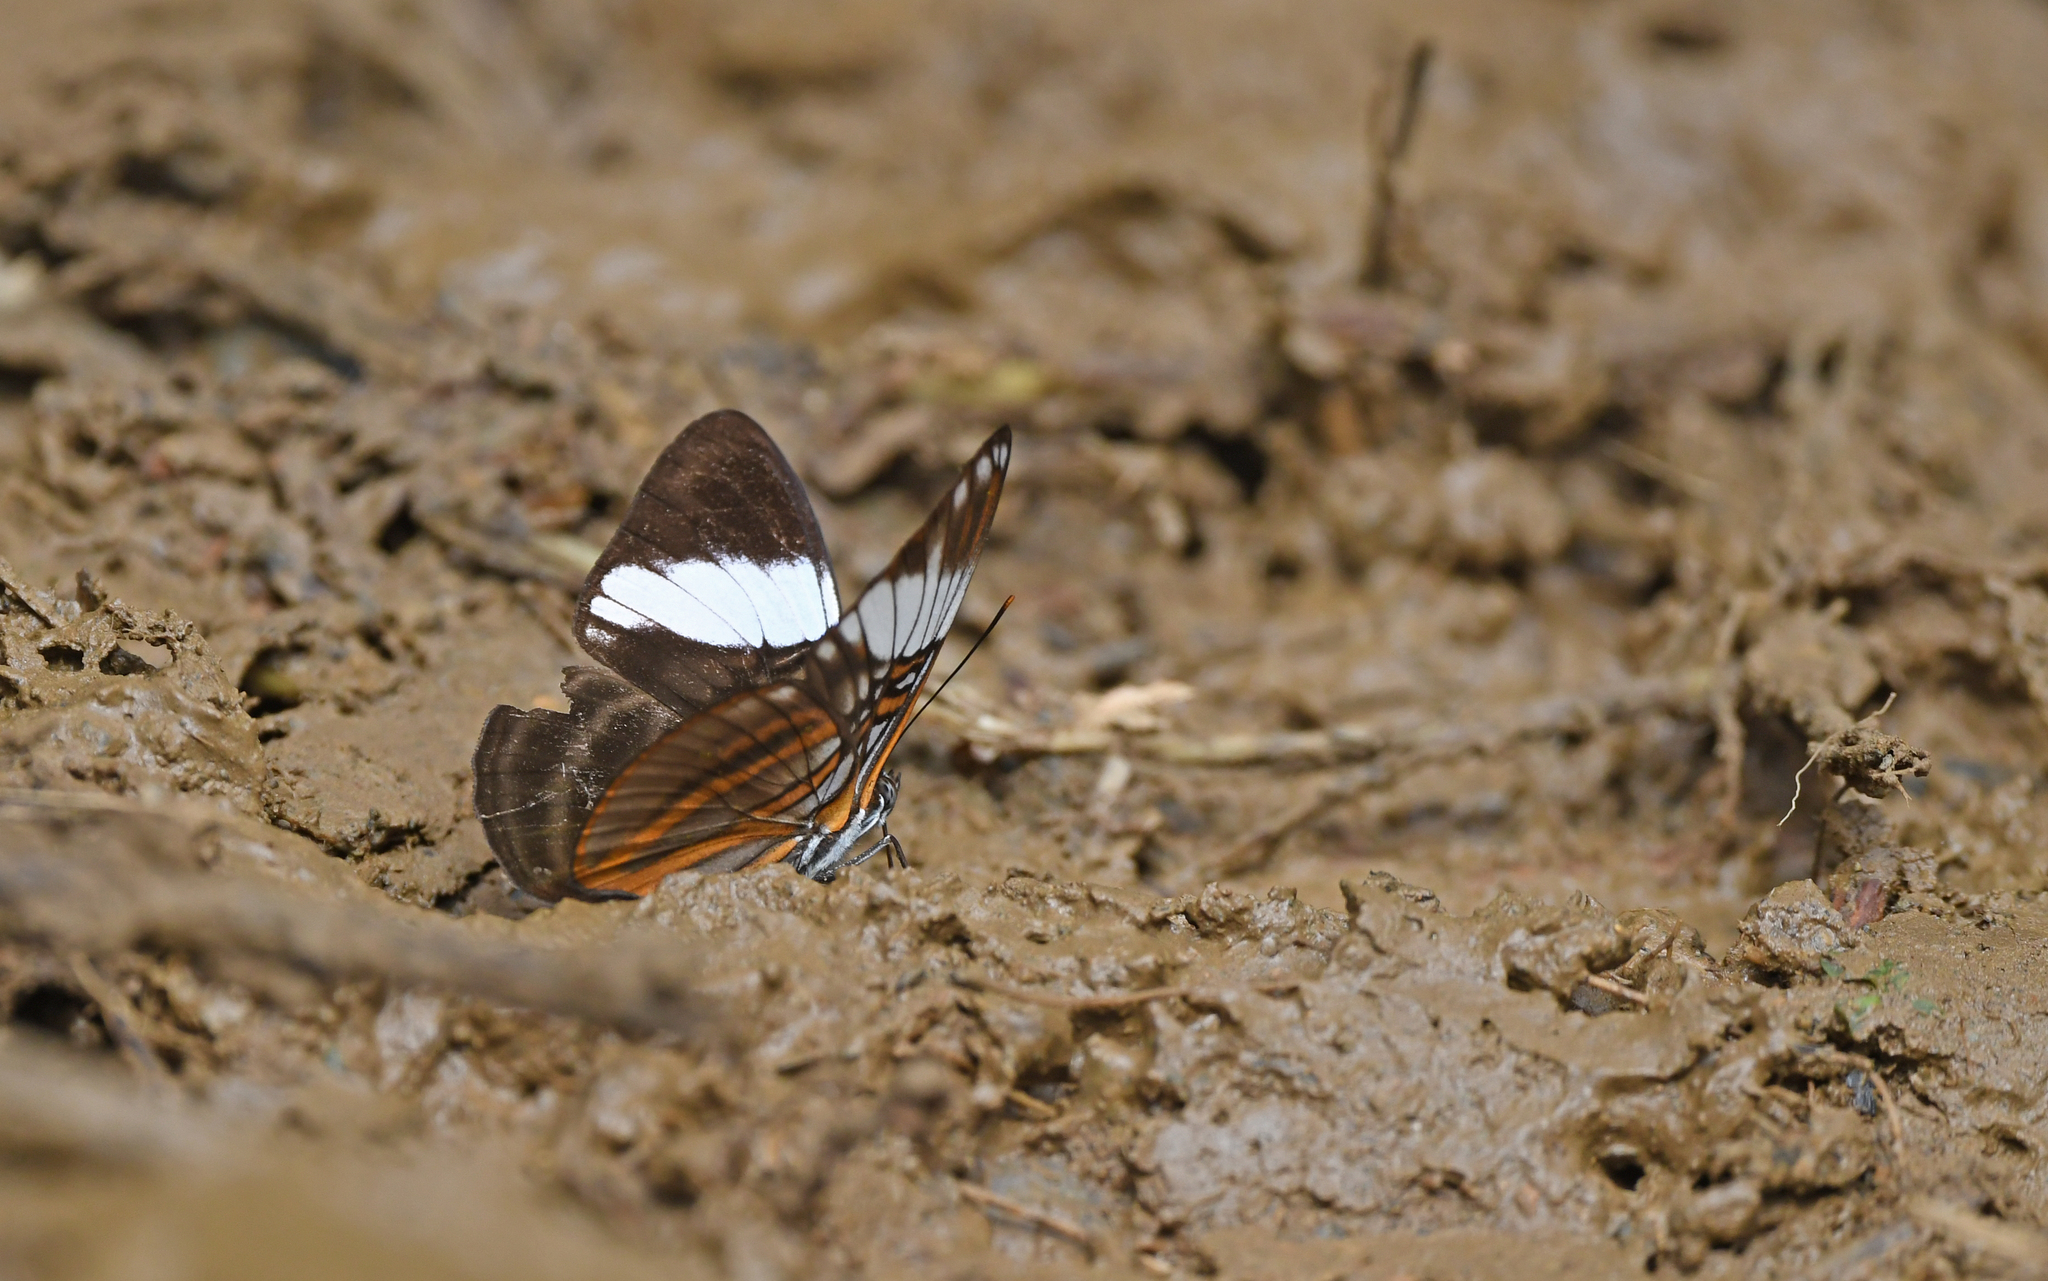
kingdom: Animalia
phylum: Arthropoda
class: Insecta
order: Lepidoptera
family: Nymphalidae
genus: Limenitis
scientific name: Limenitis epione
